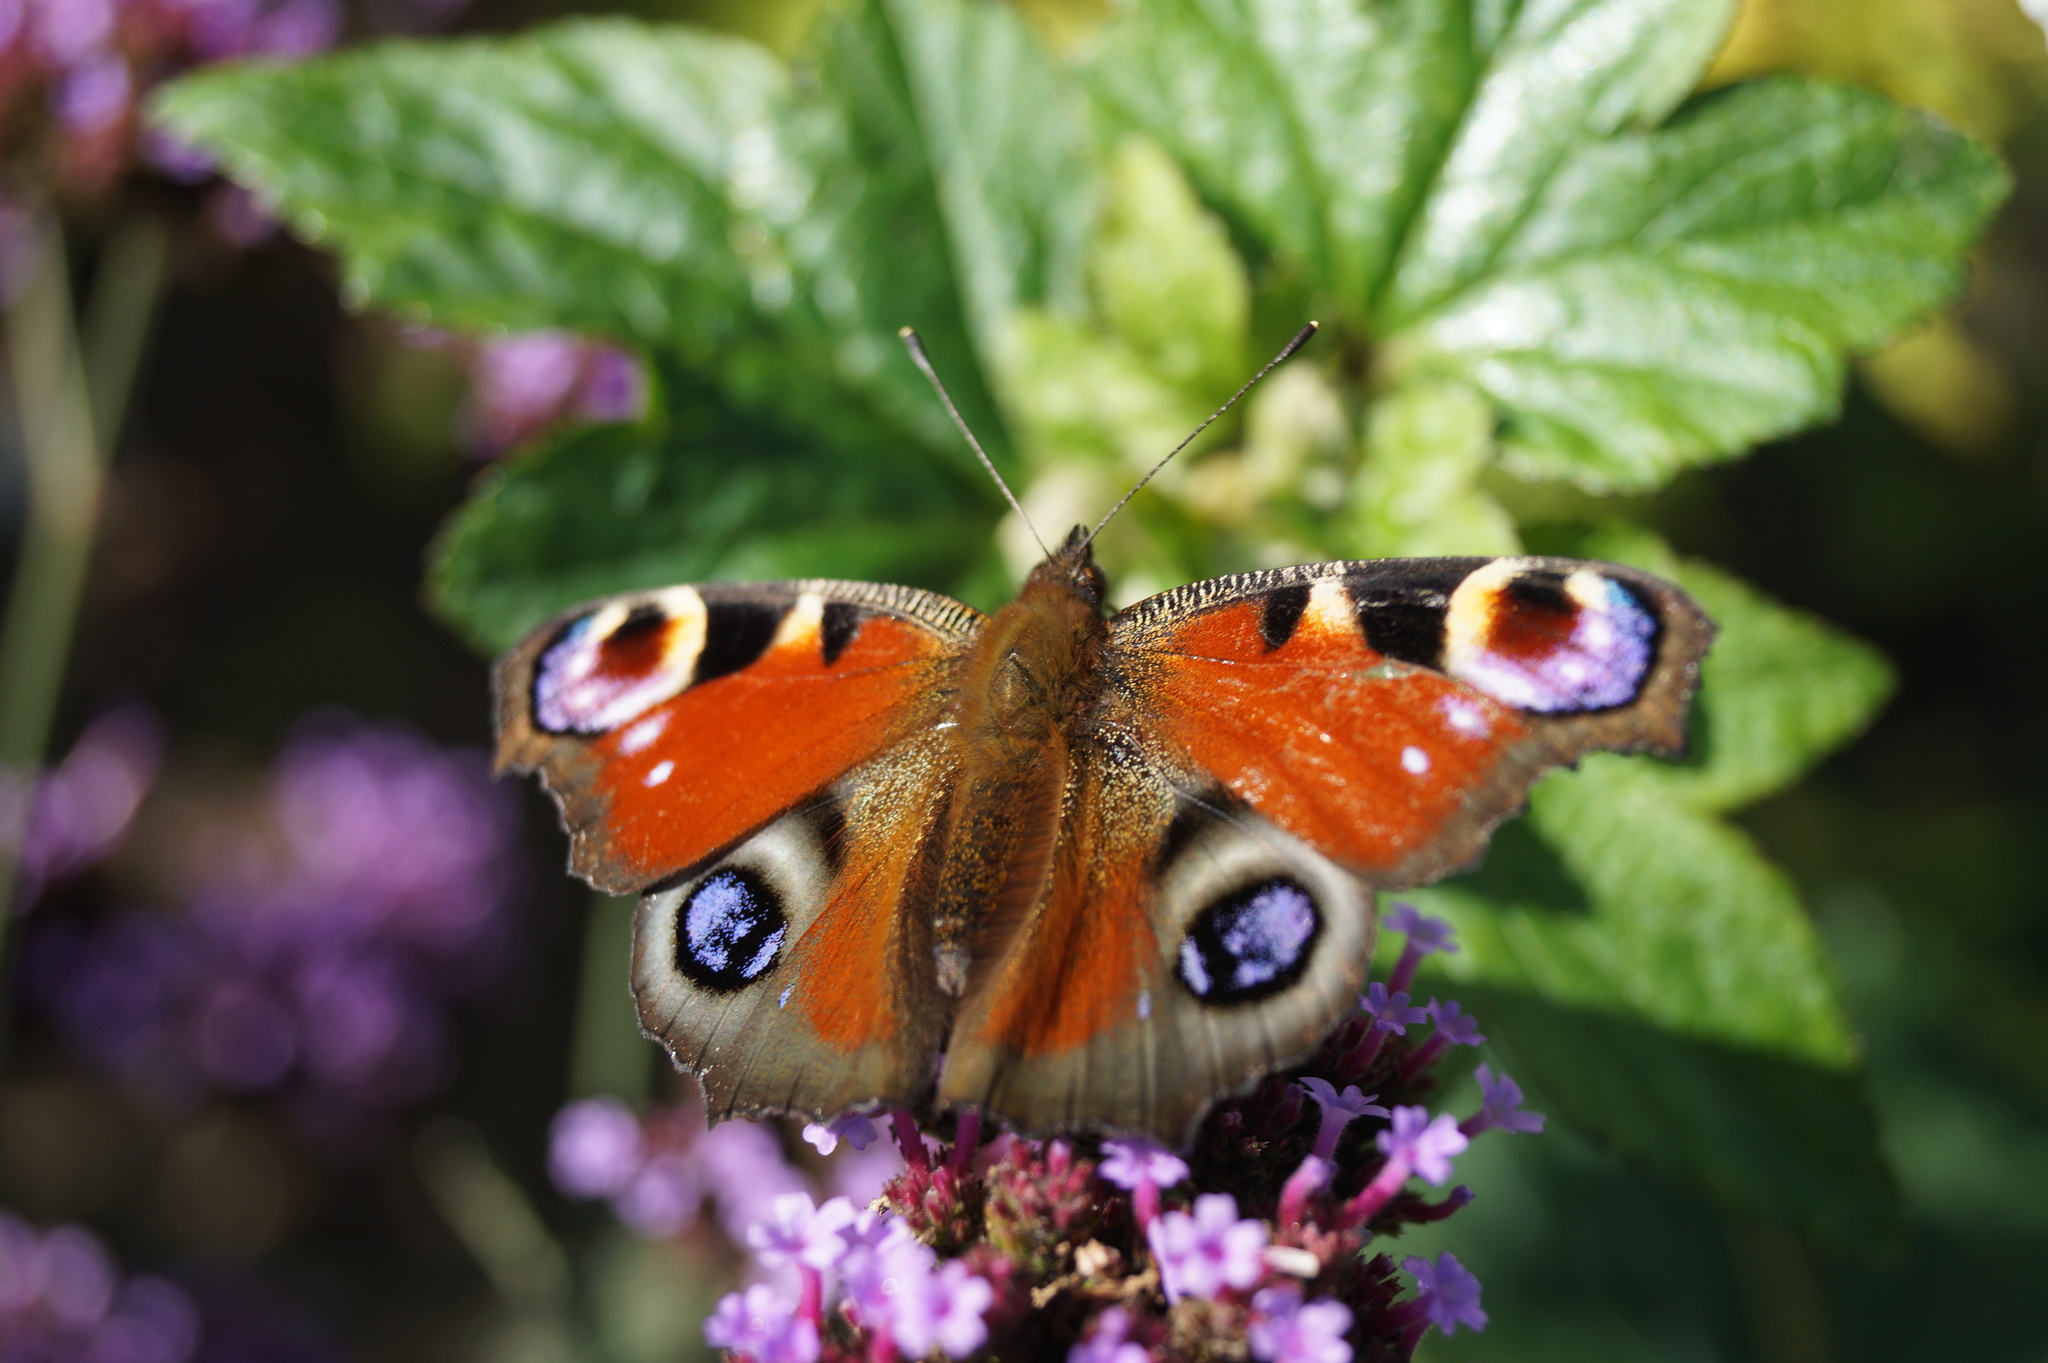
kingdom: Animalia
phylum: Arthropoda
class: Insecta
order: Lepidoptera
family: Nymphalidae
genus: Aglais
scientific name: Aglais io
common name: Peacock
